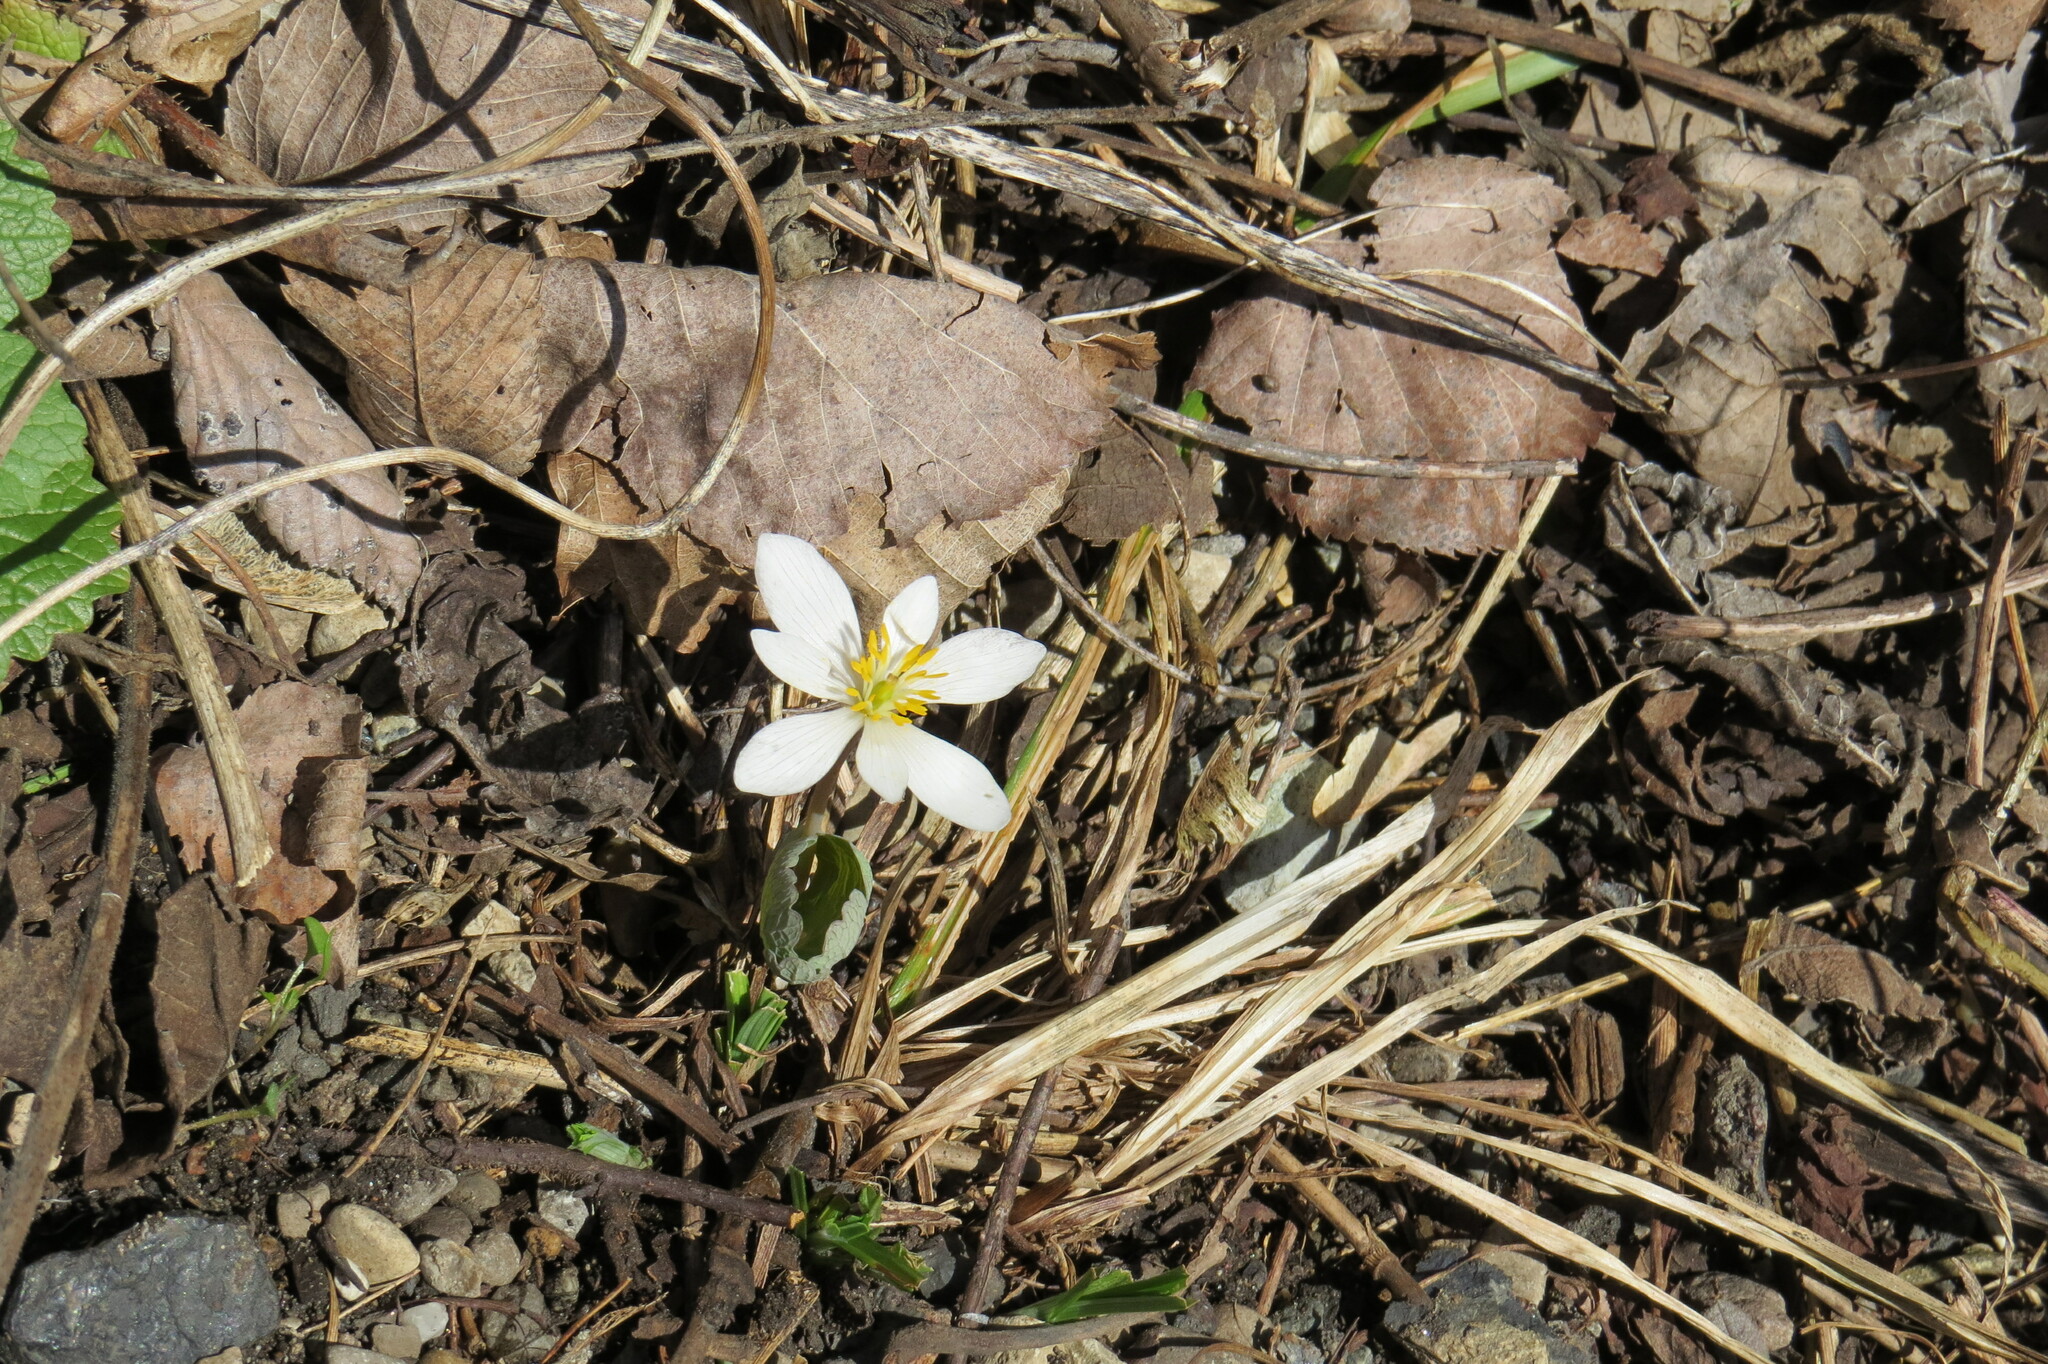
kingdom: Plantae
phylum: Tracheophyta
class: Magnoliopsida
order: Ranunculales
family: Papaveraceae
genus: Sanguinaria
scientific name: Sanguinaria canadensis
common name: Bloodroot
